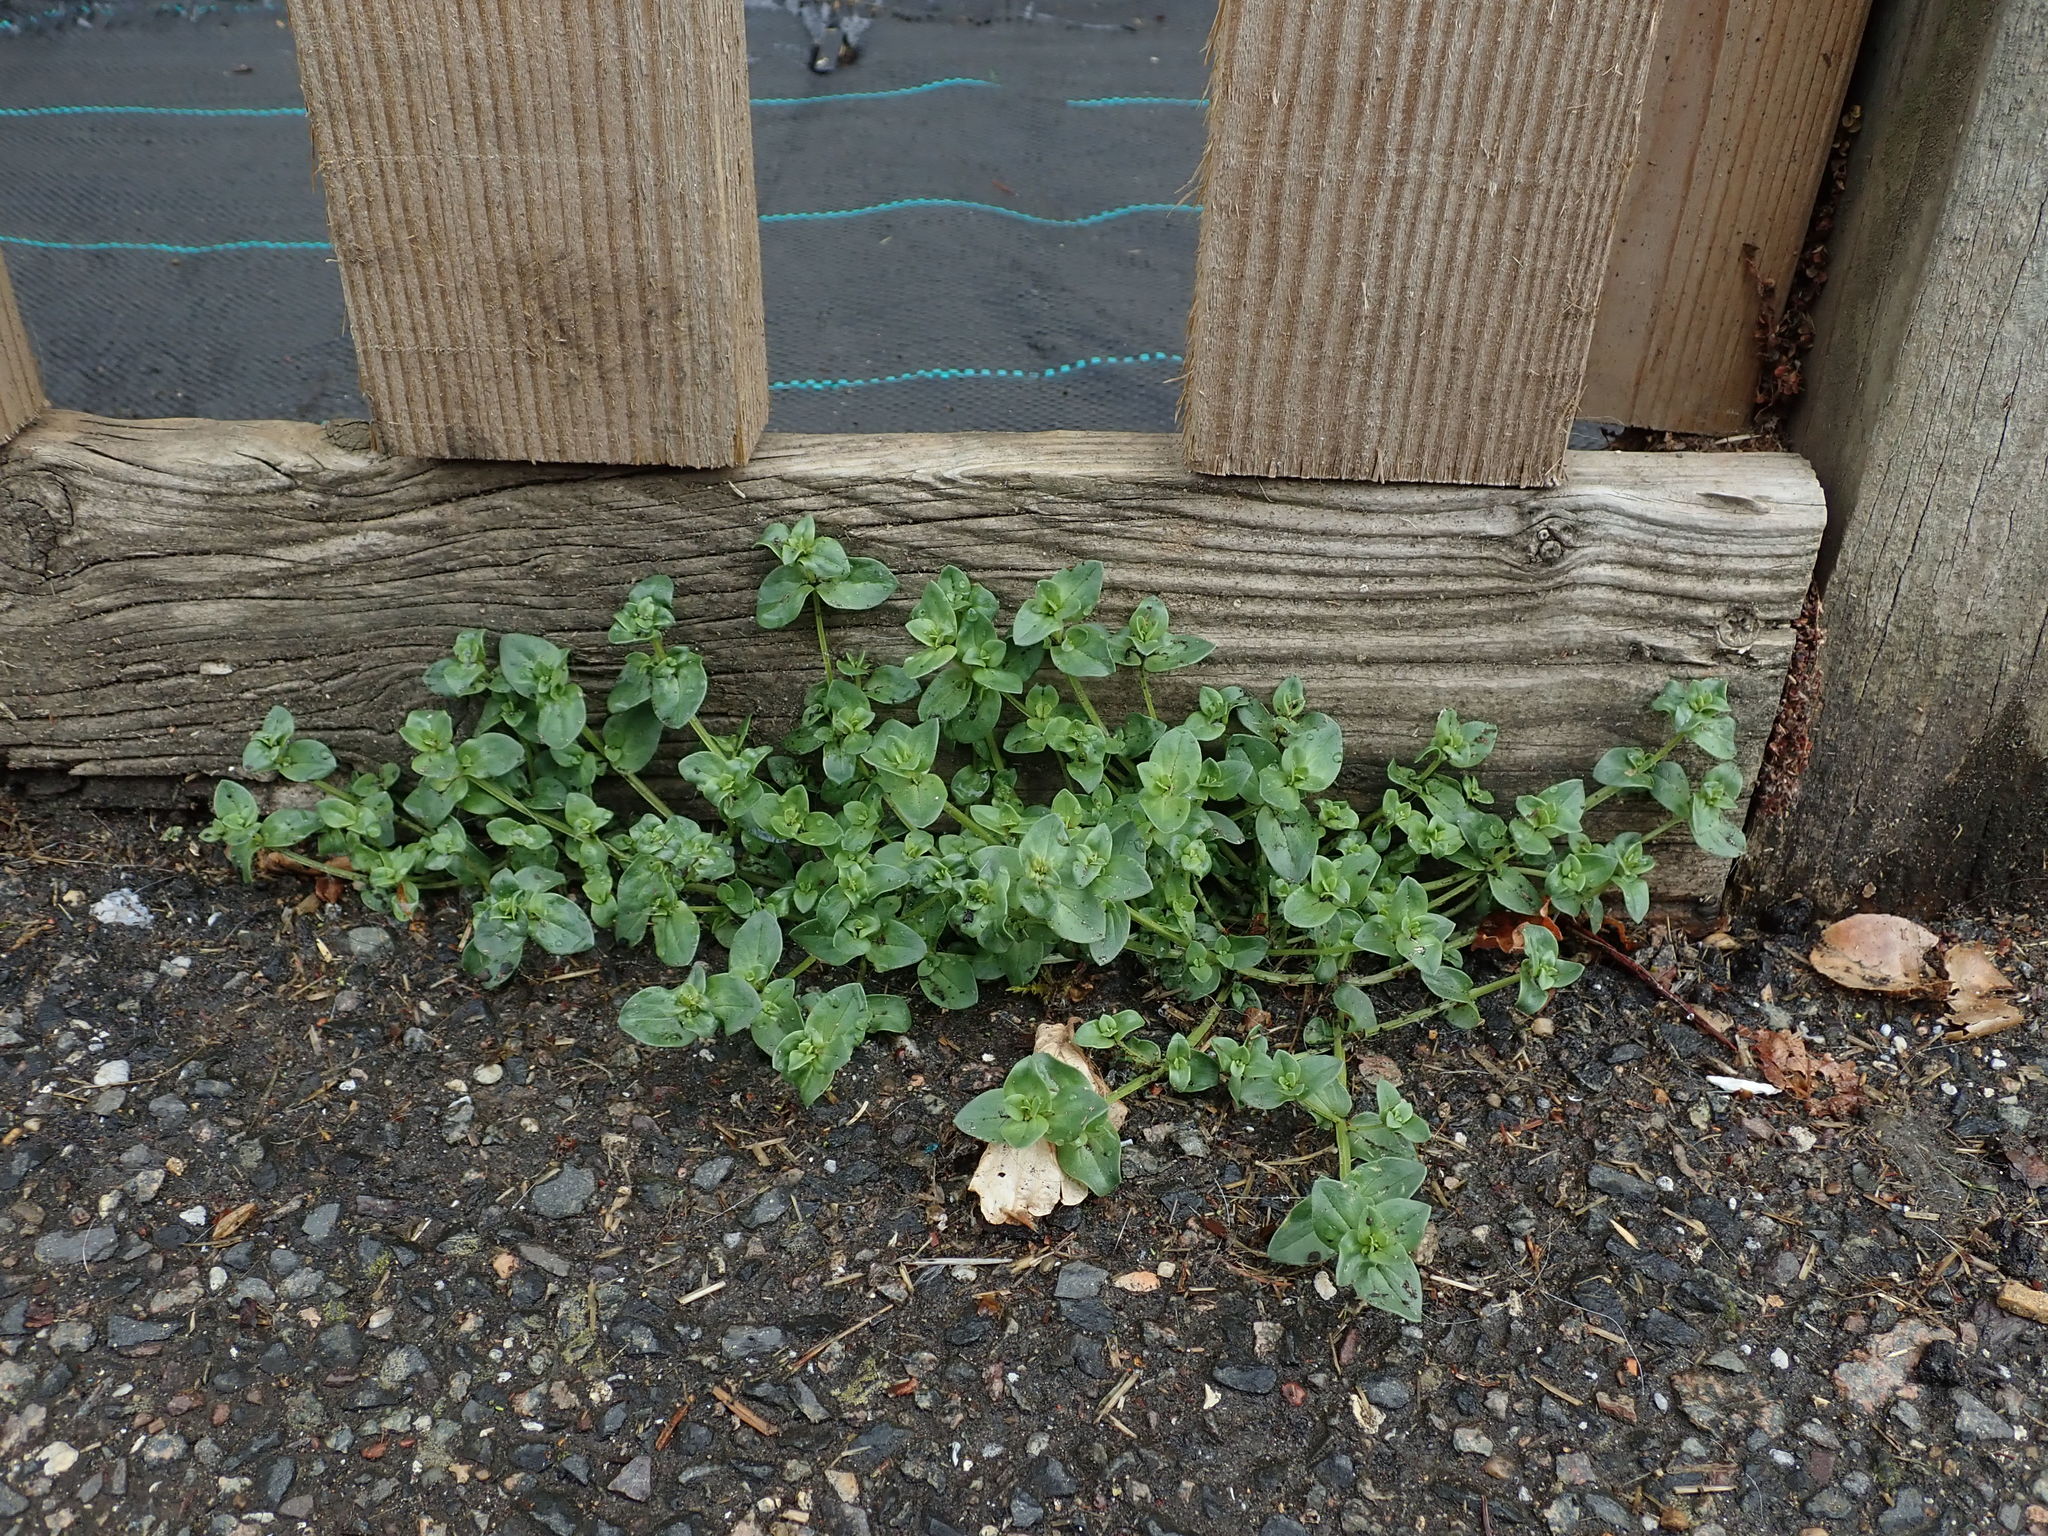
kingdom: Plantae
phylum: Tracheophyta
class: Magnoliopsida
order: Ericales
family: Primulaceae
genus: Lysimachia
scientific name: Lysimachia arvensis
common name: Scarlet pimpernel
